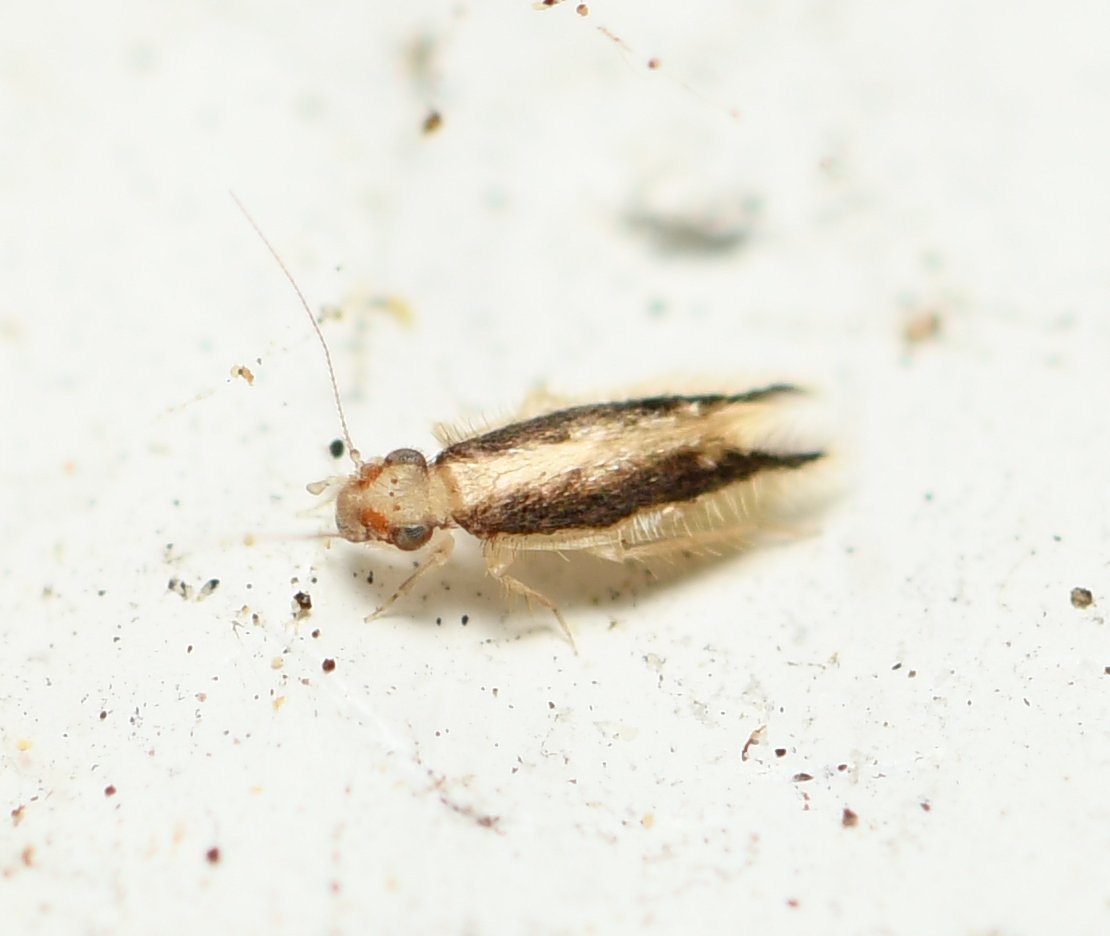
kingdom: Animalia
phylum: Arthropoda
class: Insecta
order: Psocodea
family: Lepidopsocidae
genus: Echmepteryx
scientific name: Echmepteryx madagascariensis
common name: Bark lice
